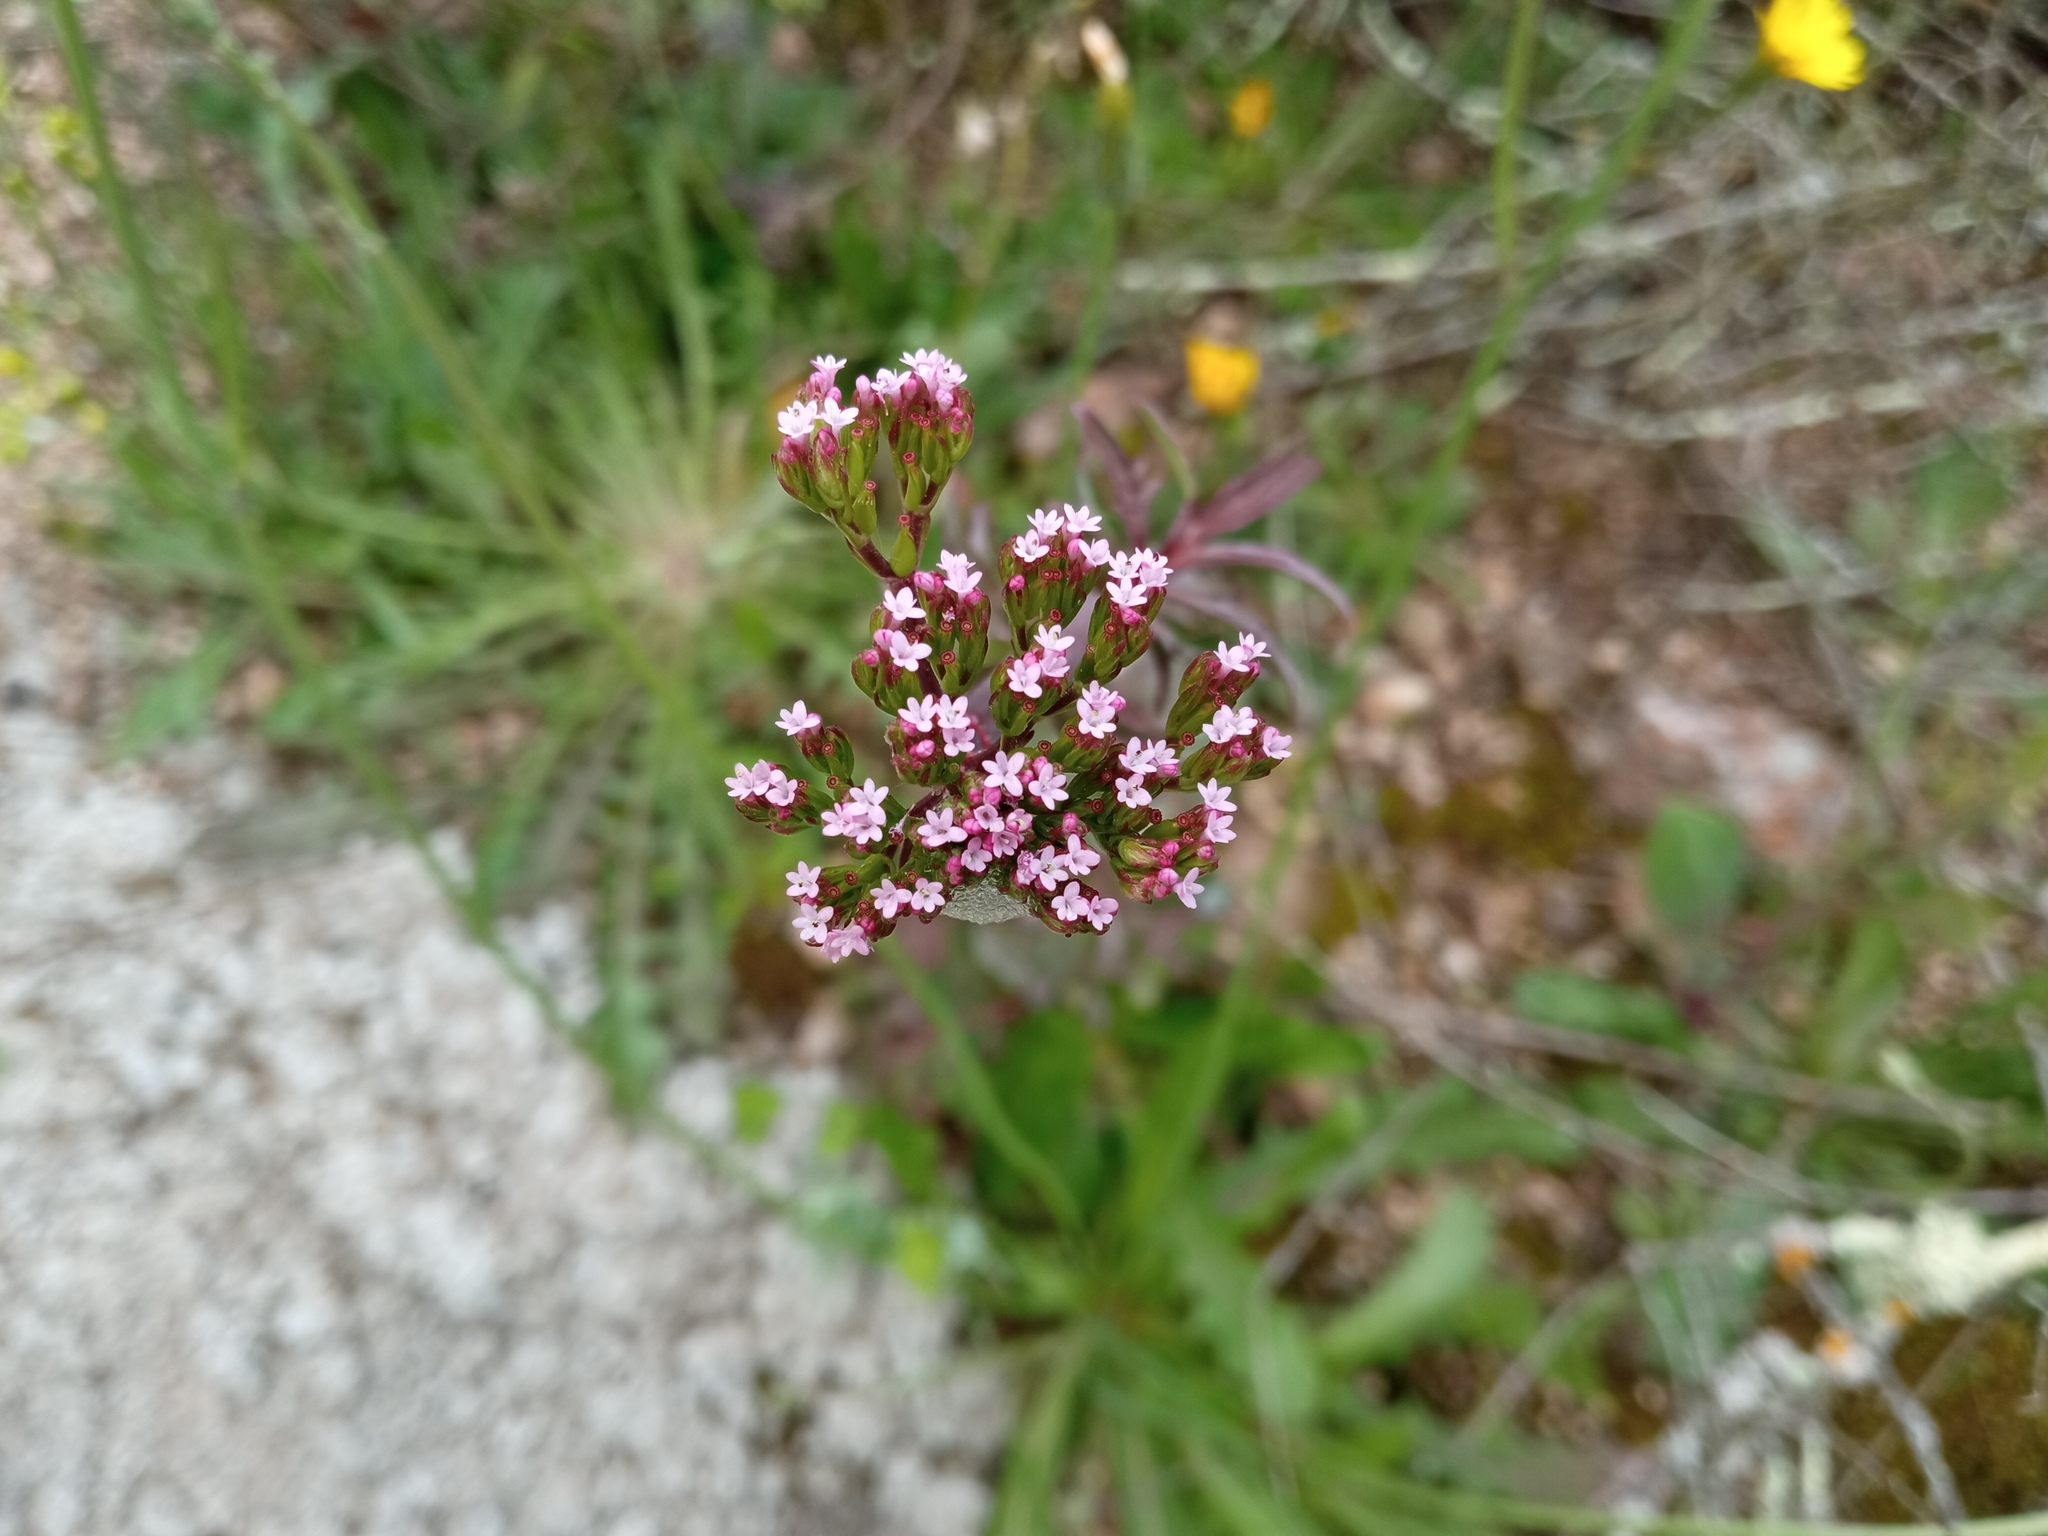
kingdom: Plantae
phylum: Tracheophyta
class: Magnoliopsida
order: Dipsacales
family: Caprifoliaceae
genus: Centranthus
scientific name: Centranthus calcitrapae
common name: Annual valerian
